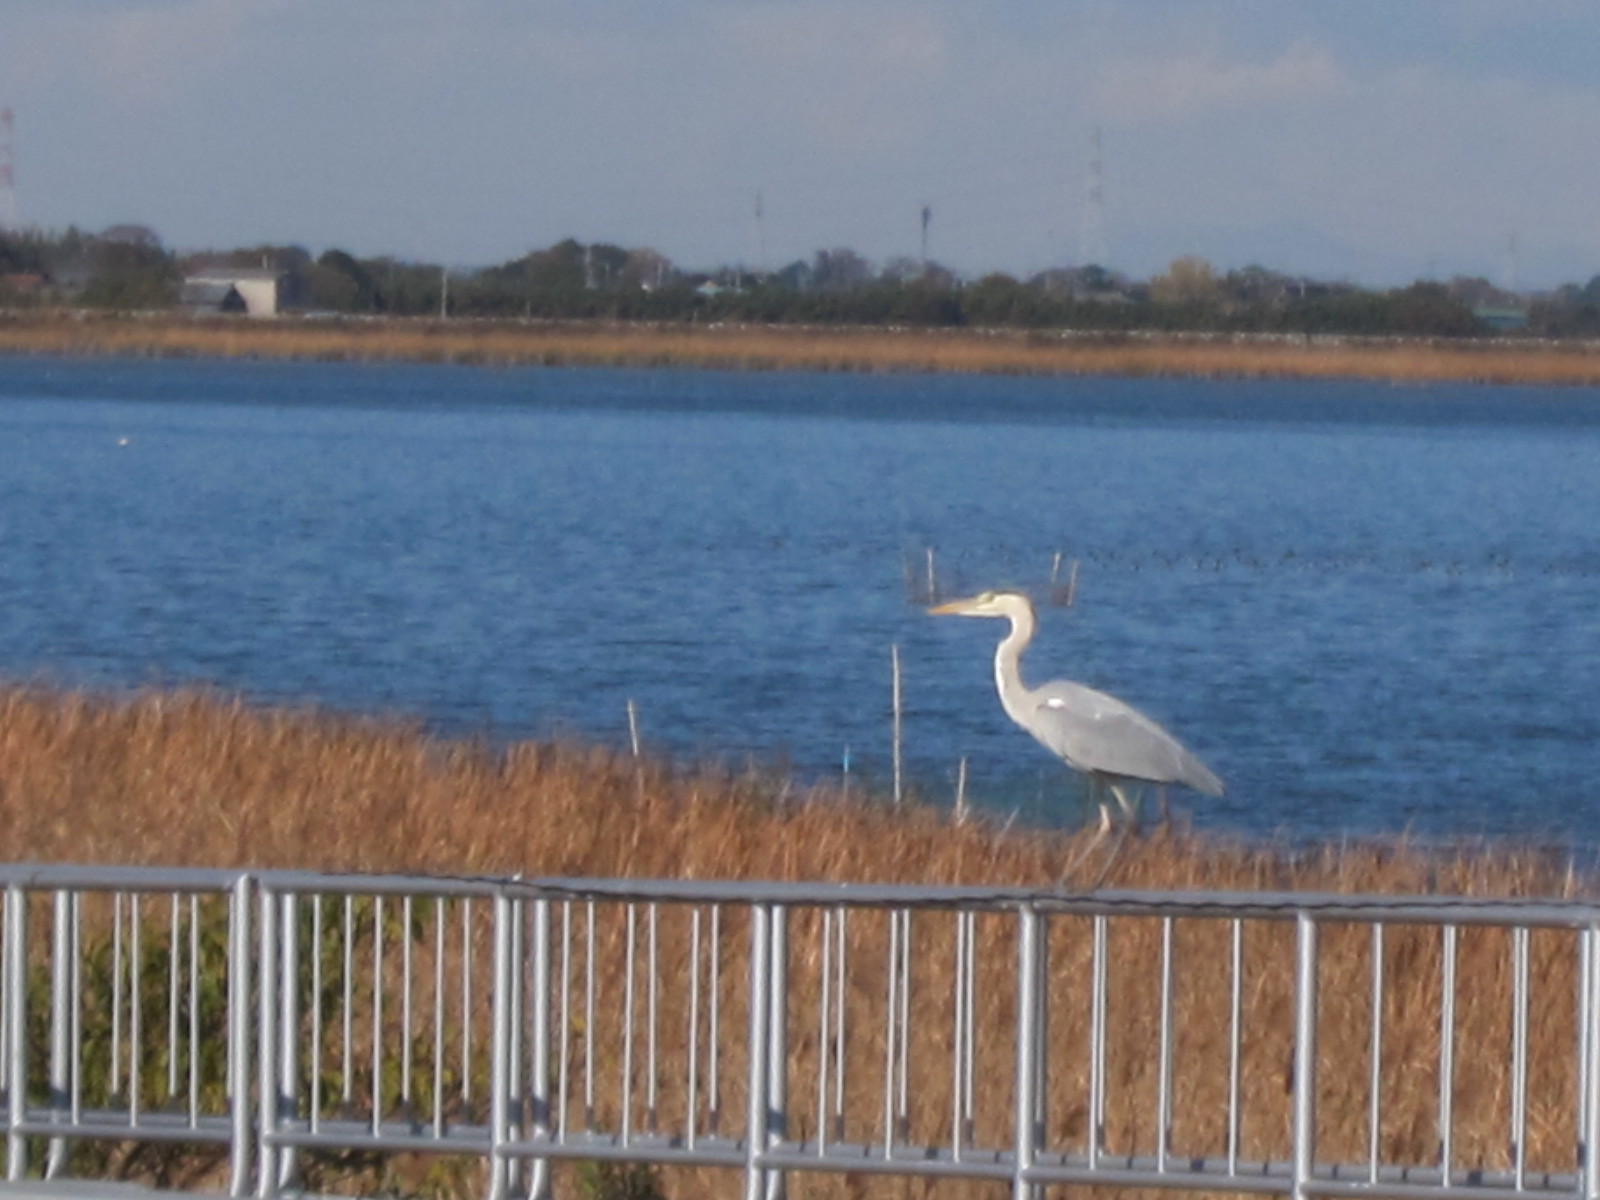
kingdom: Animalia
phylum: Chordata
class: Aves
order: Pelecaniformes
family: Ardeidae
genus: Ardea
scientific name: Ardea cinerea
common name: Grey heron
